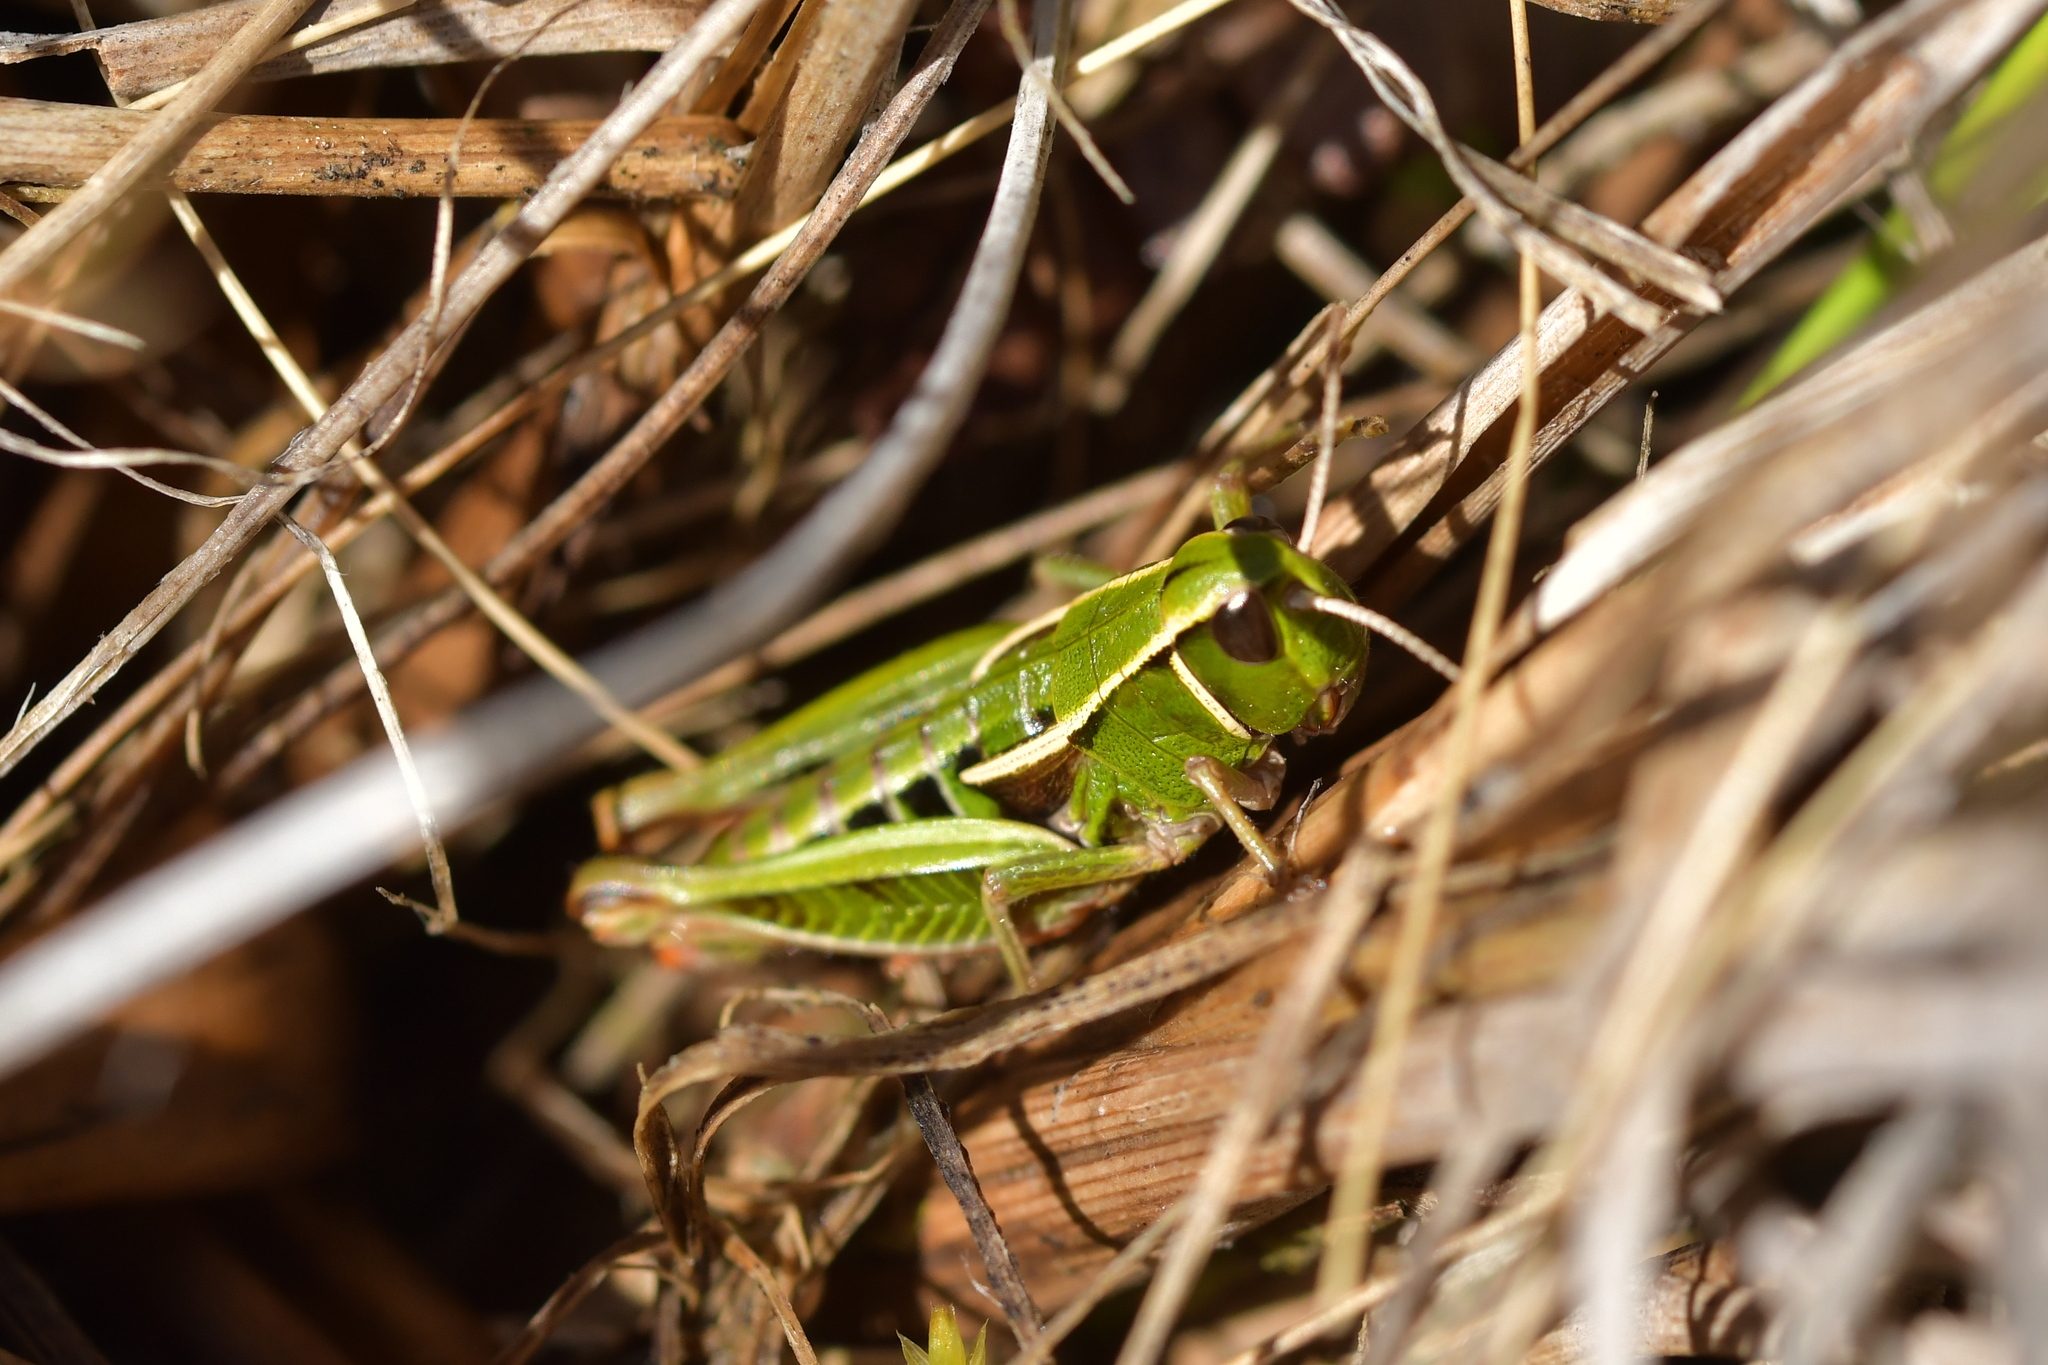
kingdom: Animalia
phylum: Arthropoda
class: Insecta
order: Orthoptera
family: Acrididae
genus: Sigaus
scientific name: Sigaus
